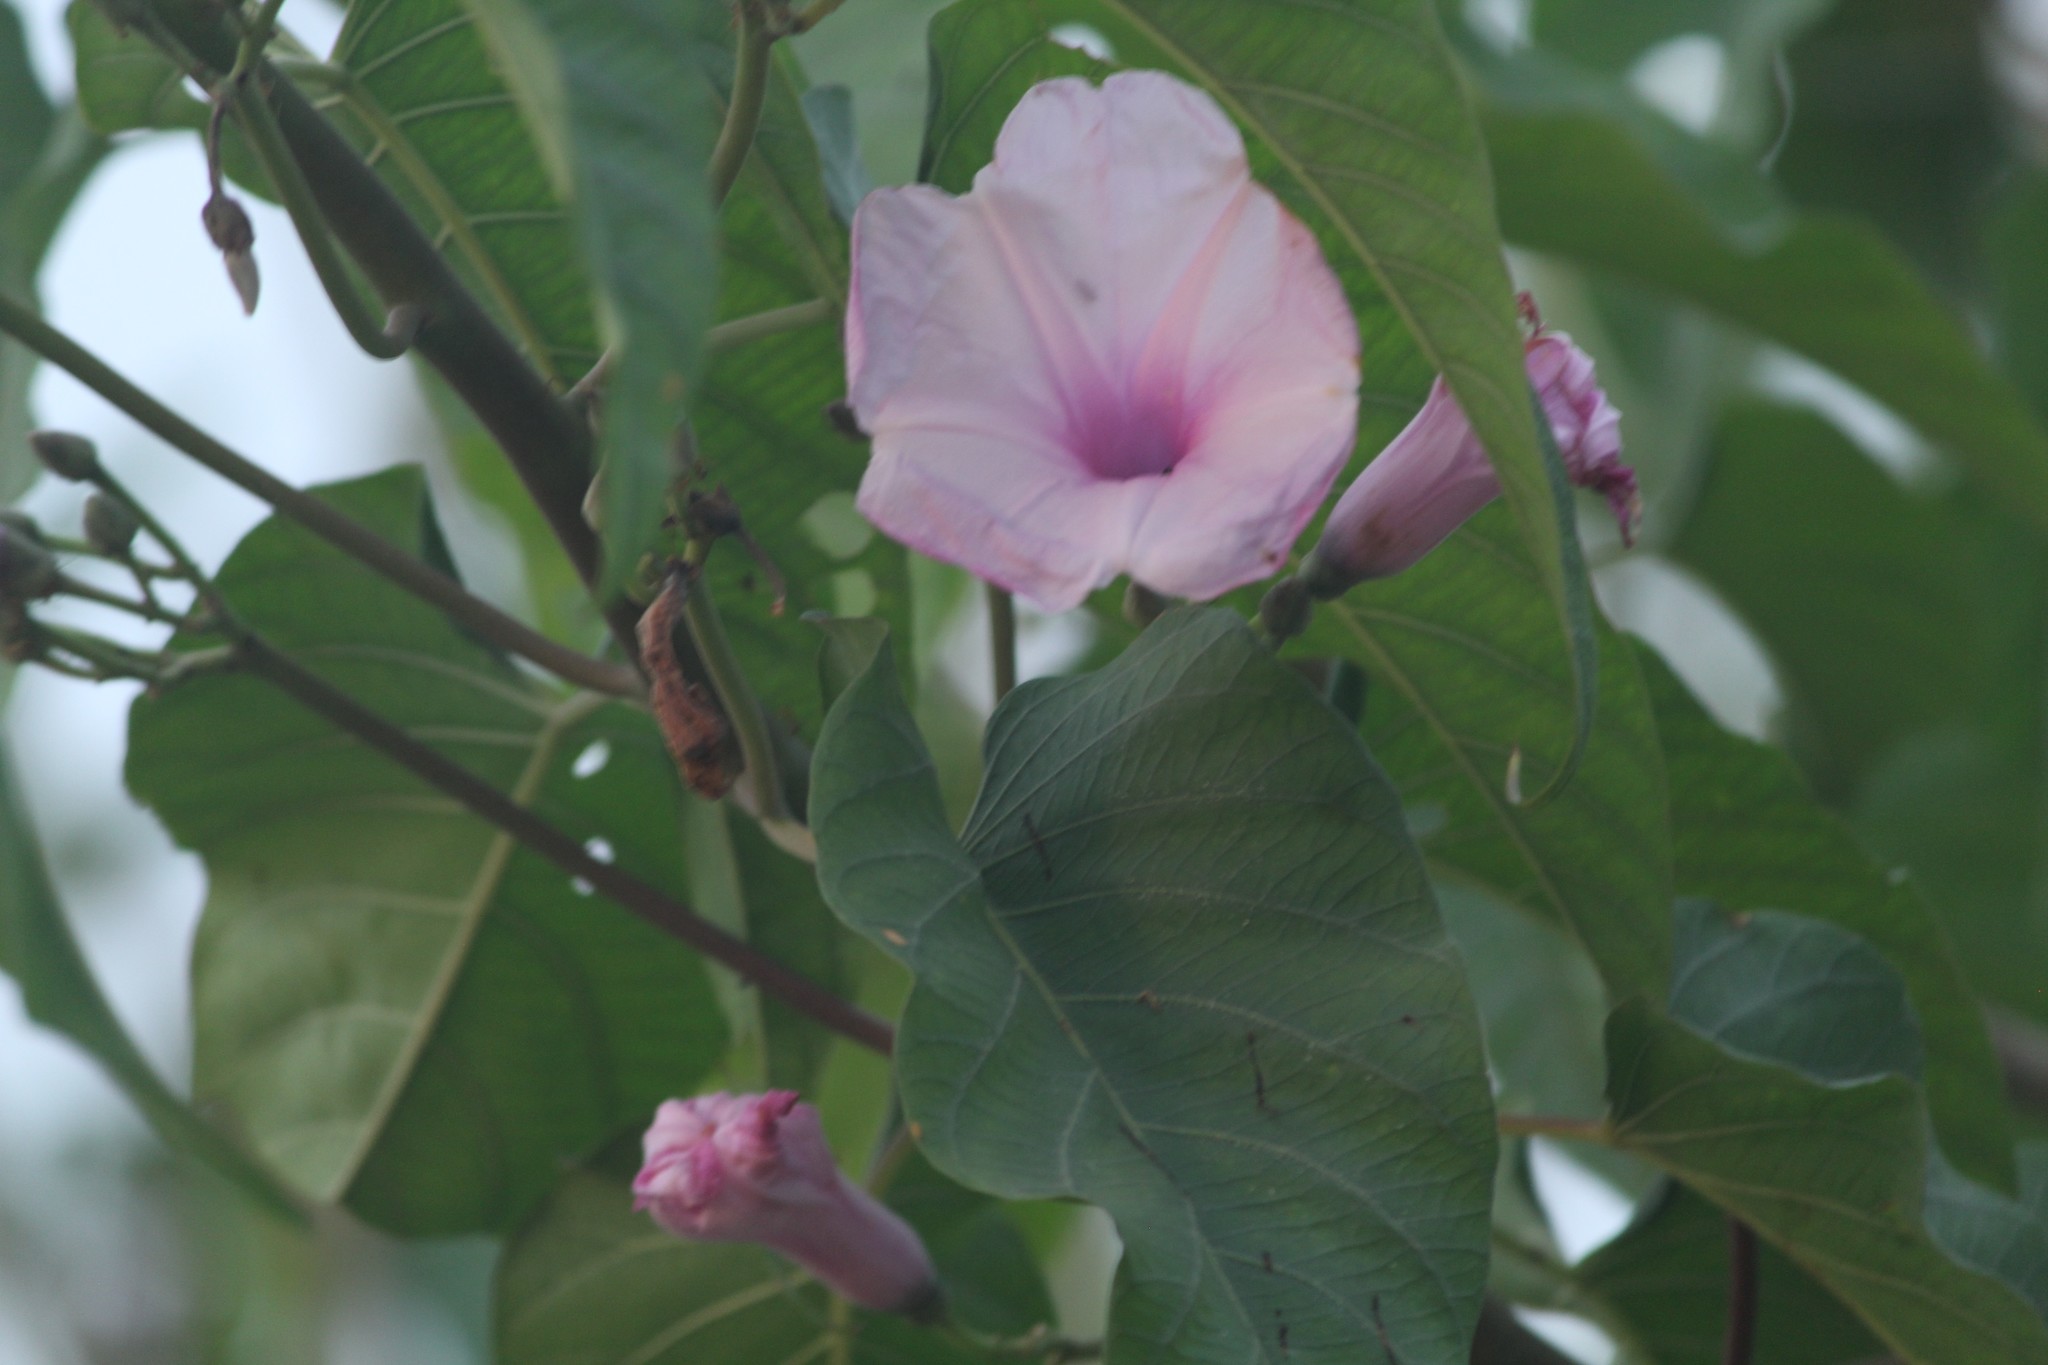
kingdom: Plantae
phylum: Tracheophyta
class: Magnoliopsida
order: Solanales
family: Convolvulaceae
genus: Ipomoea
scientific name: Ipomoea carnea
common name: Morning-glory
